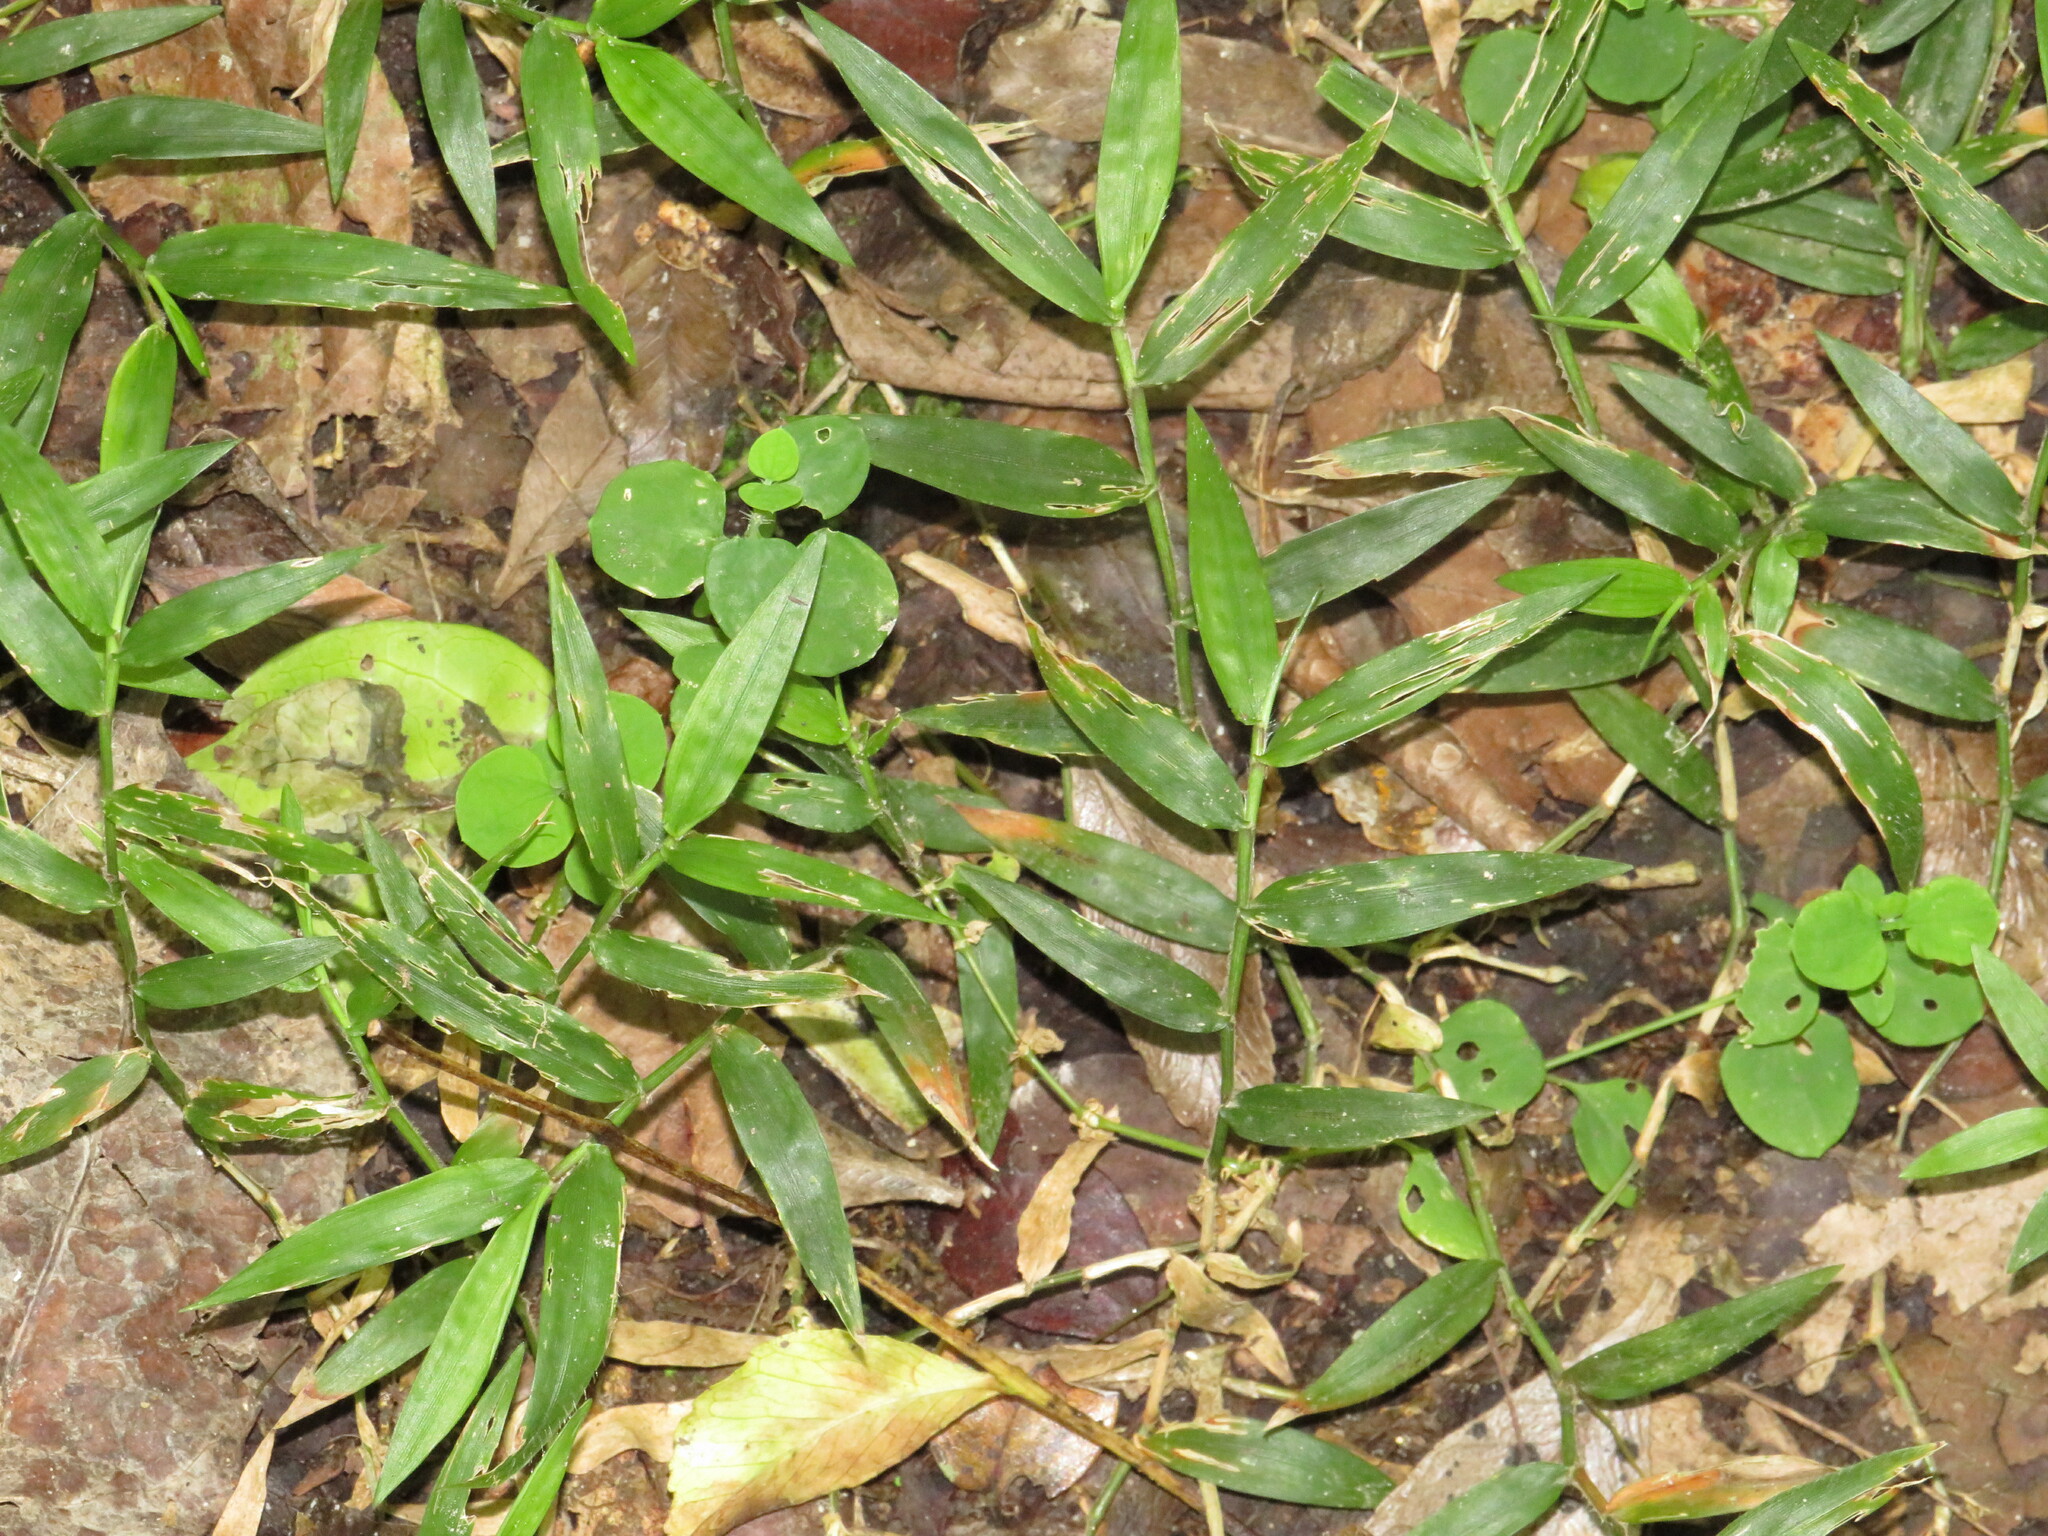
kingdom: Plantae
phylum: Tracheophyta
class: Liliopsida
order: Poales
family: Poaceae
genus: Oplismenus
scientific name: Oplismenus hirtellus
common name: Basketgrass
